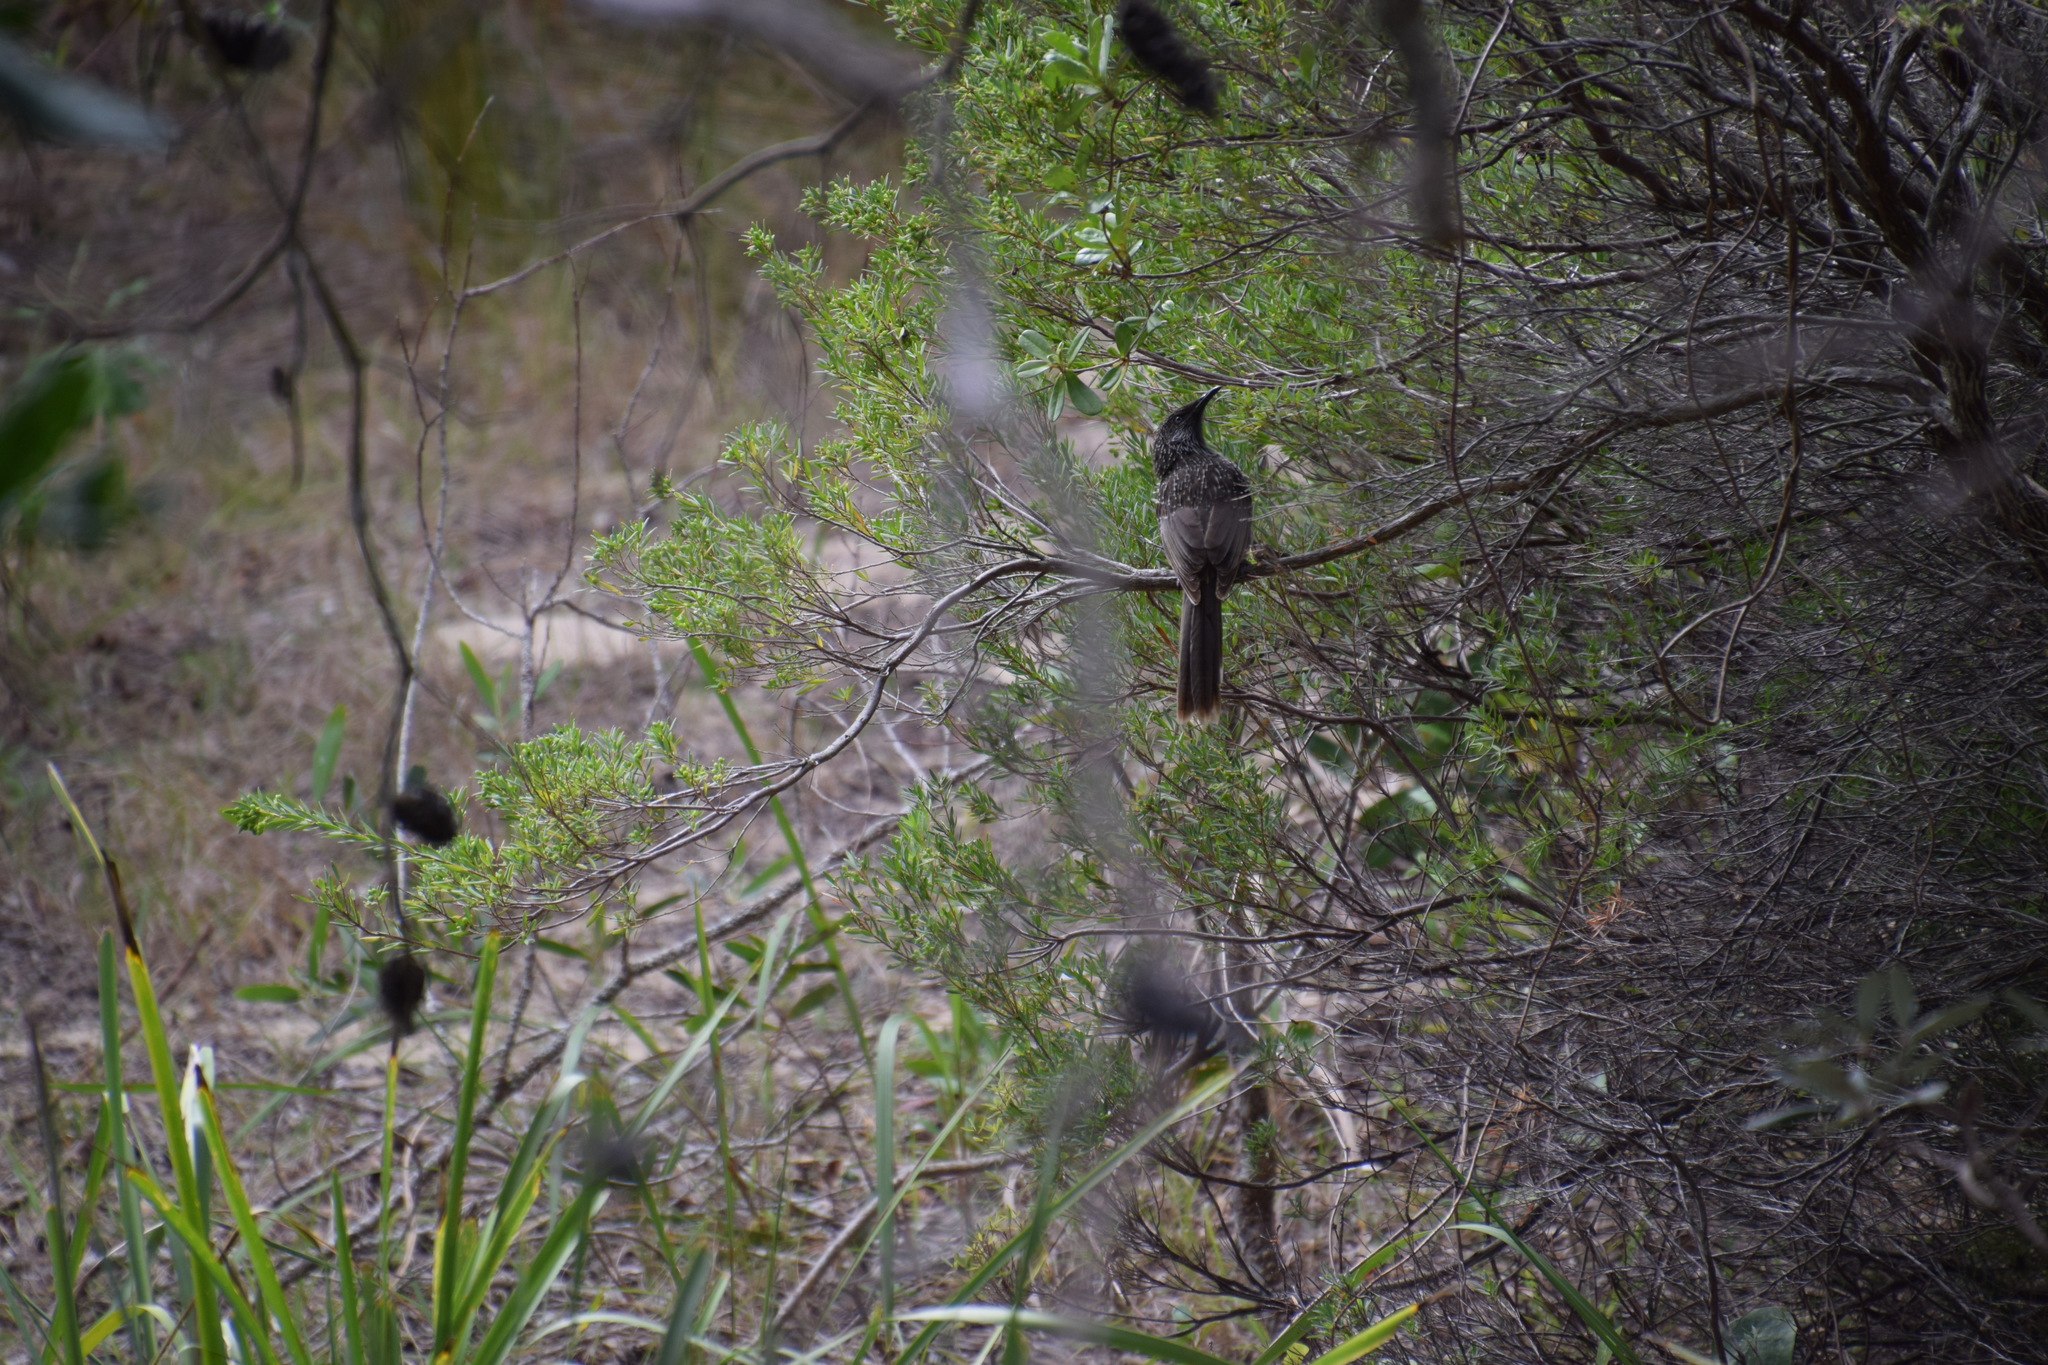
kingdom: Animalia
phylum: Chordata
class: Aves
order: Passeriformes
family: Meliphagidae
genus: Anthochaera
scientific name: Anthochaera chrysoptera
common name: Little wattlebird
